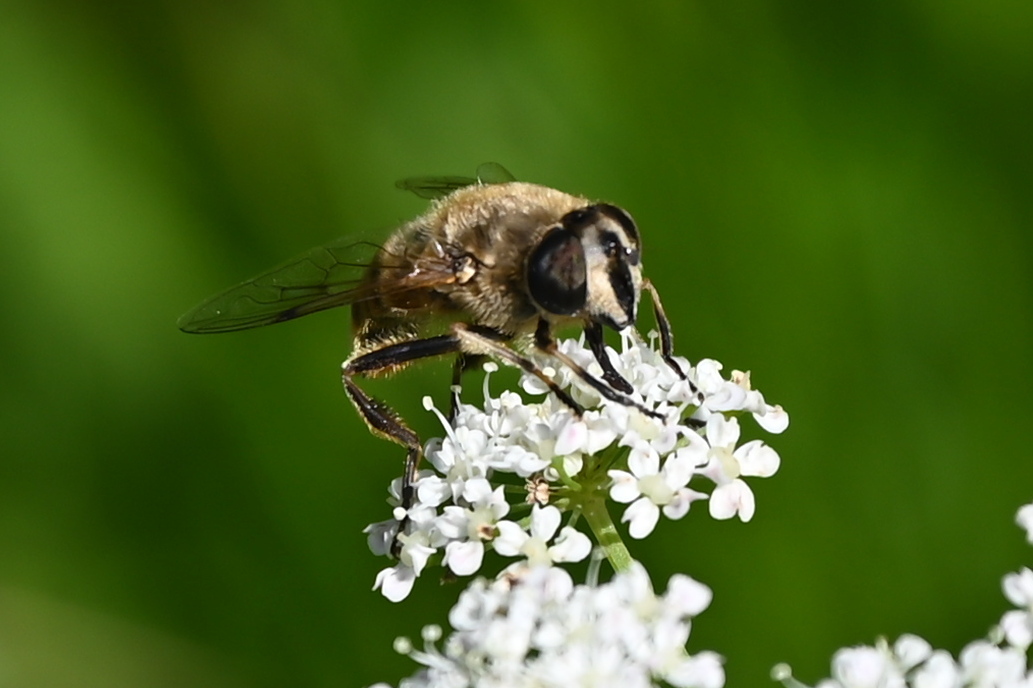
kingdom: Animalia
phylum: Arthropoda
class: Insecta
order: Diptera
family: Syrphidae
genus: Eristalis
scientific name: Eristalis tenax
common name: Drone fly
